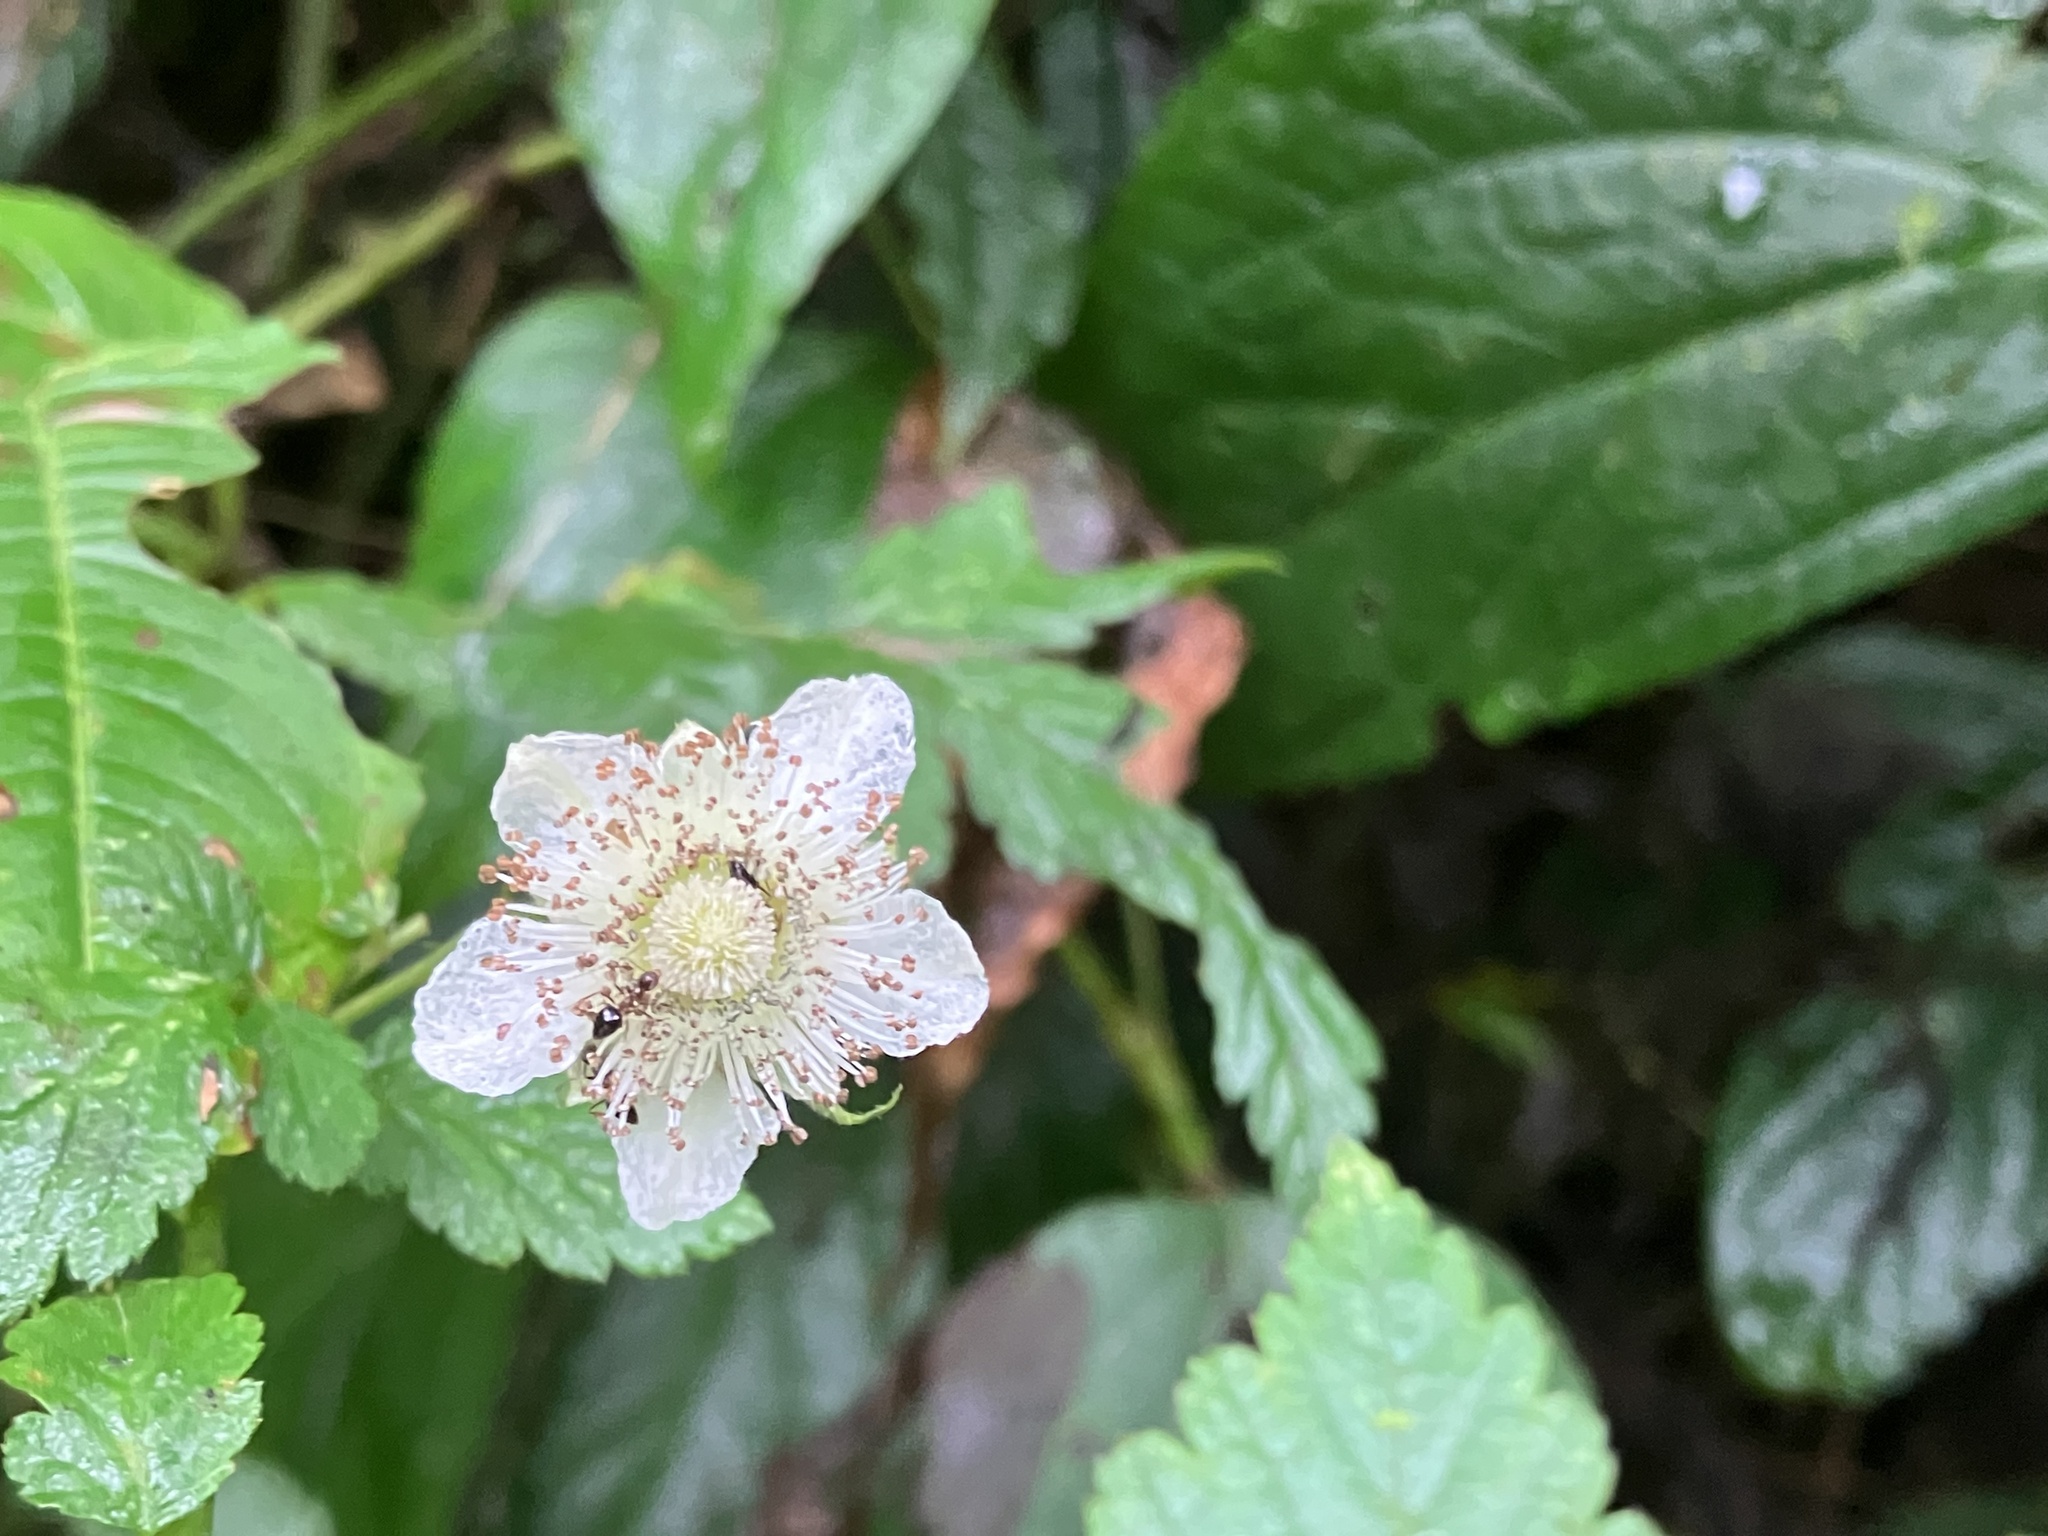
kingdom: Plantae
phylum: Tracheophyta
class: Magnoliopsida
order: Rosales
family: Rosaceae
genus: Rubus
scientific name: Rubus croceacanthus
